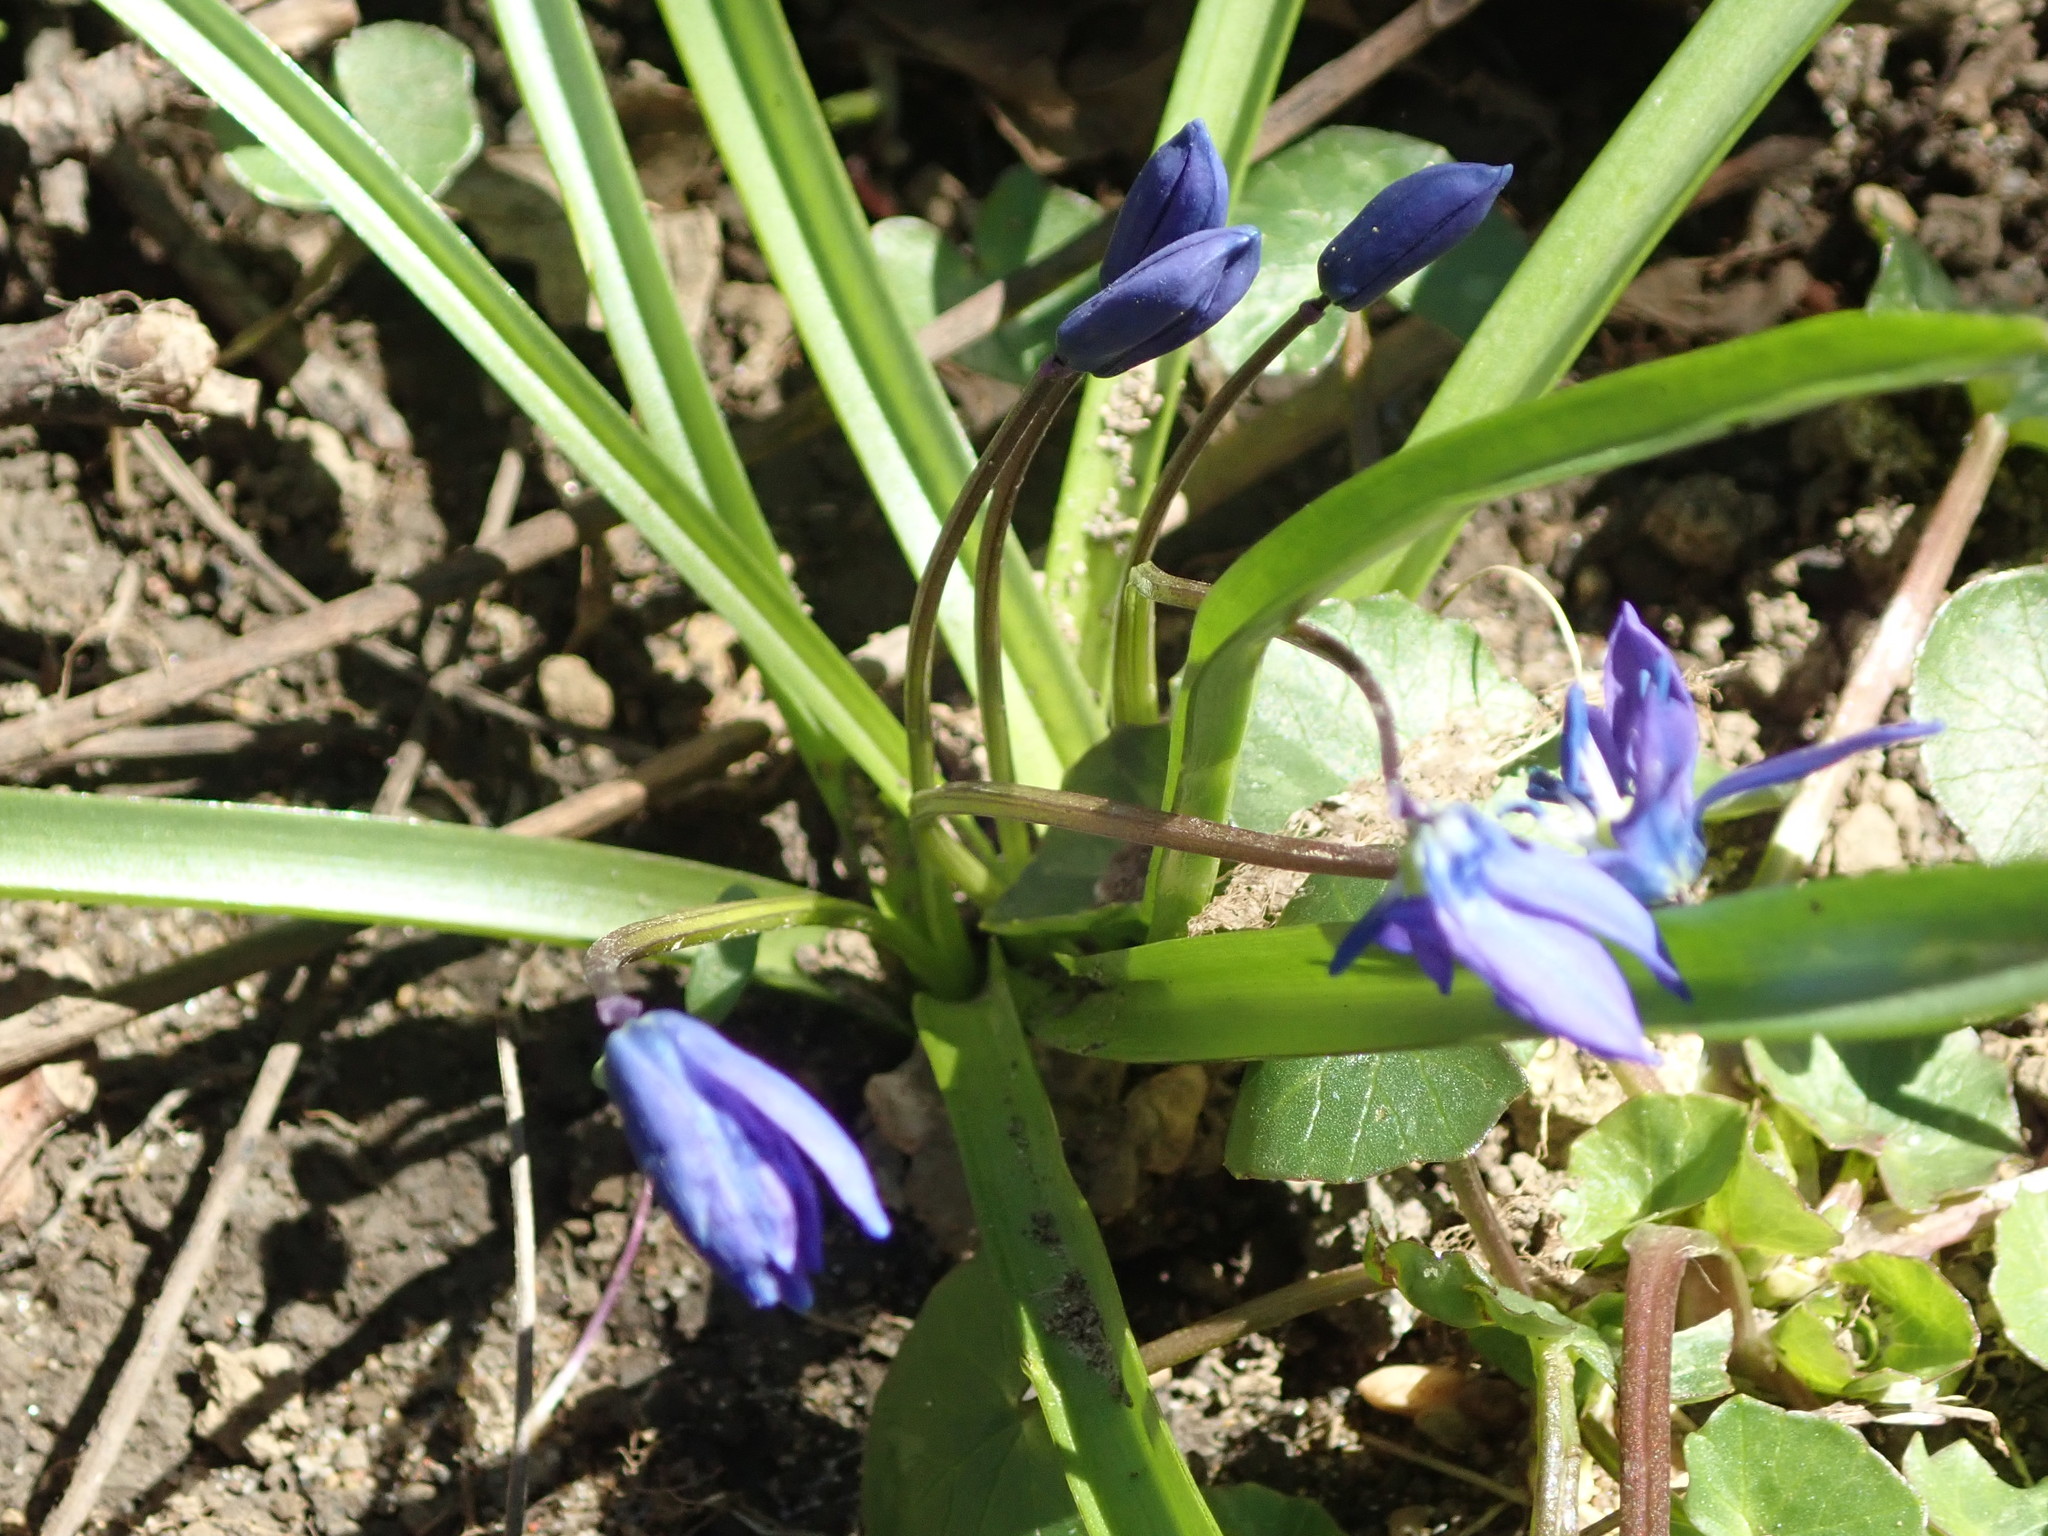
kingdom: Plantae
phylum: Tracheophyta
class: Liliopsida
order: Asparagales
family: Asparagaceae
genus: Scilla
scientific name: Scilla siberica
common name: Siberian squill
